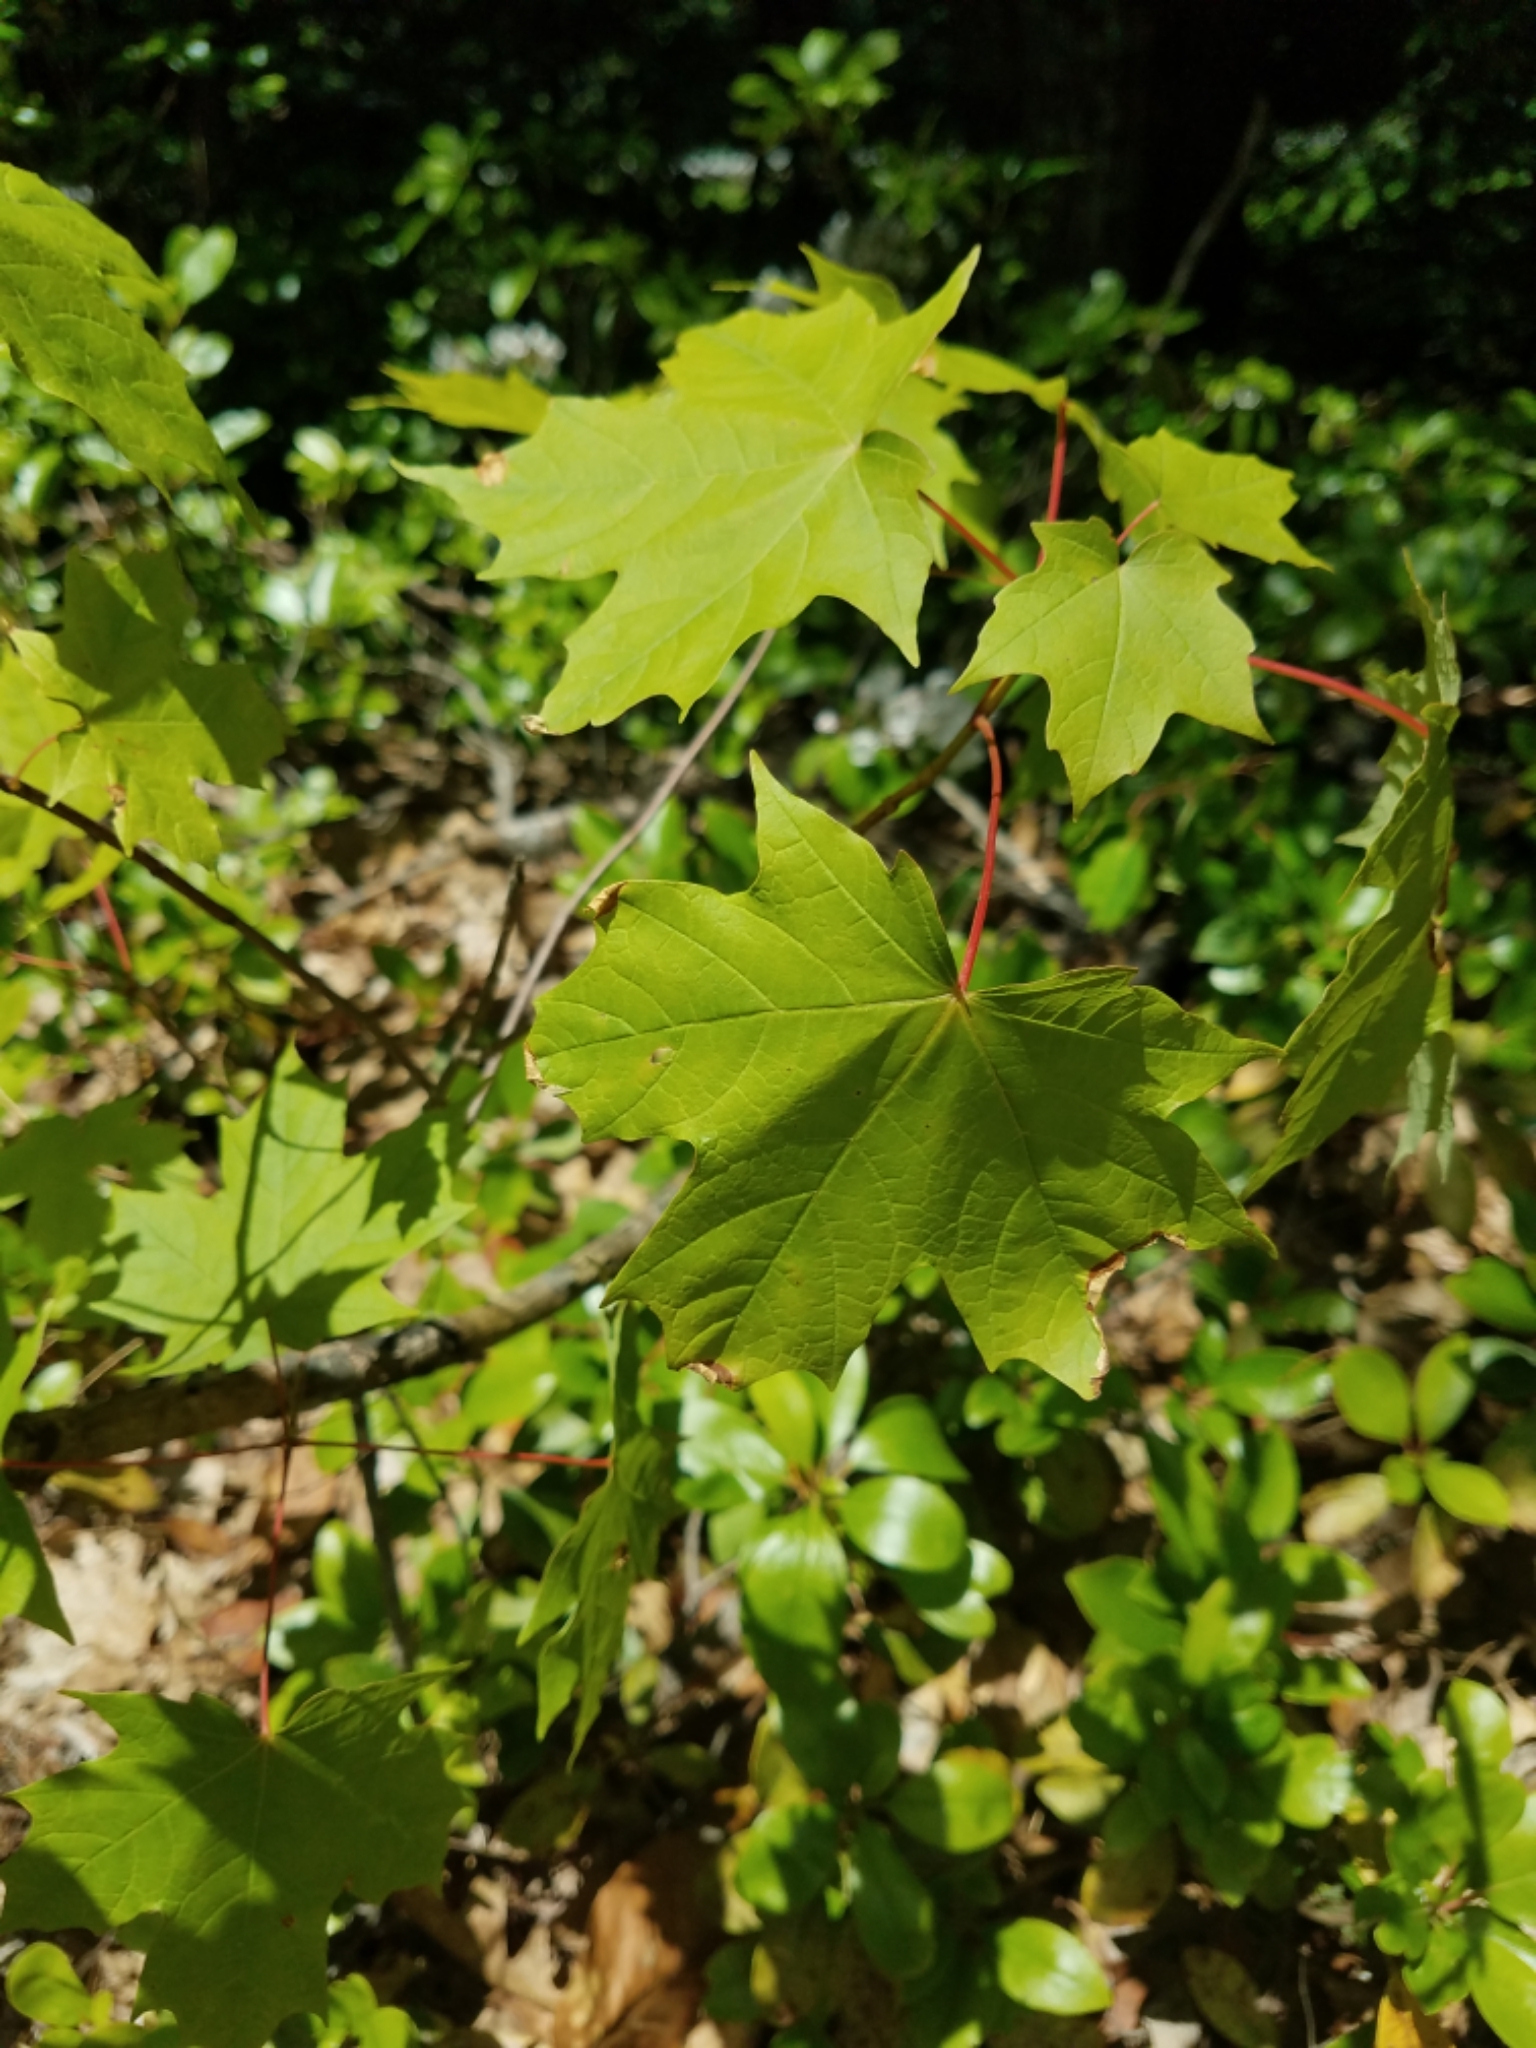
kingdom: Plantae
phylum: Tracheophyta
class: Magnoliopsida
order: Sapindales
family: Sapindaceae
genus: Acer
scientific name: Acer rubrum
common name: Red maple
